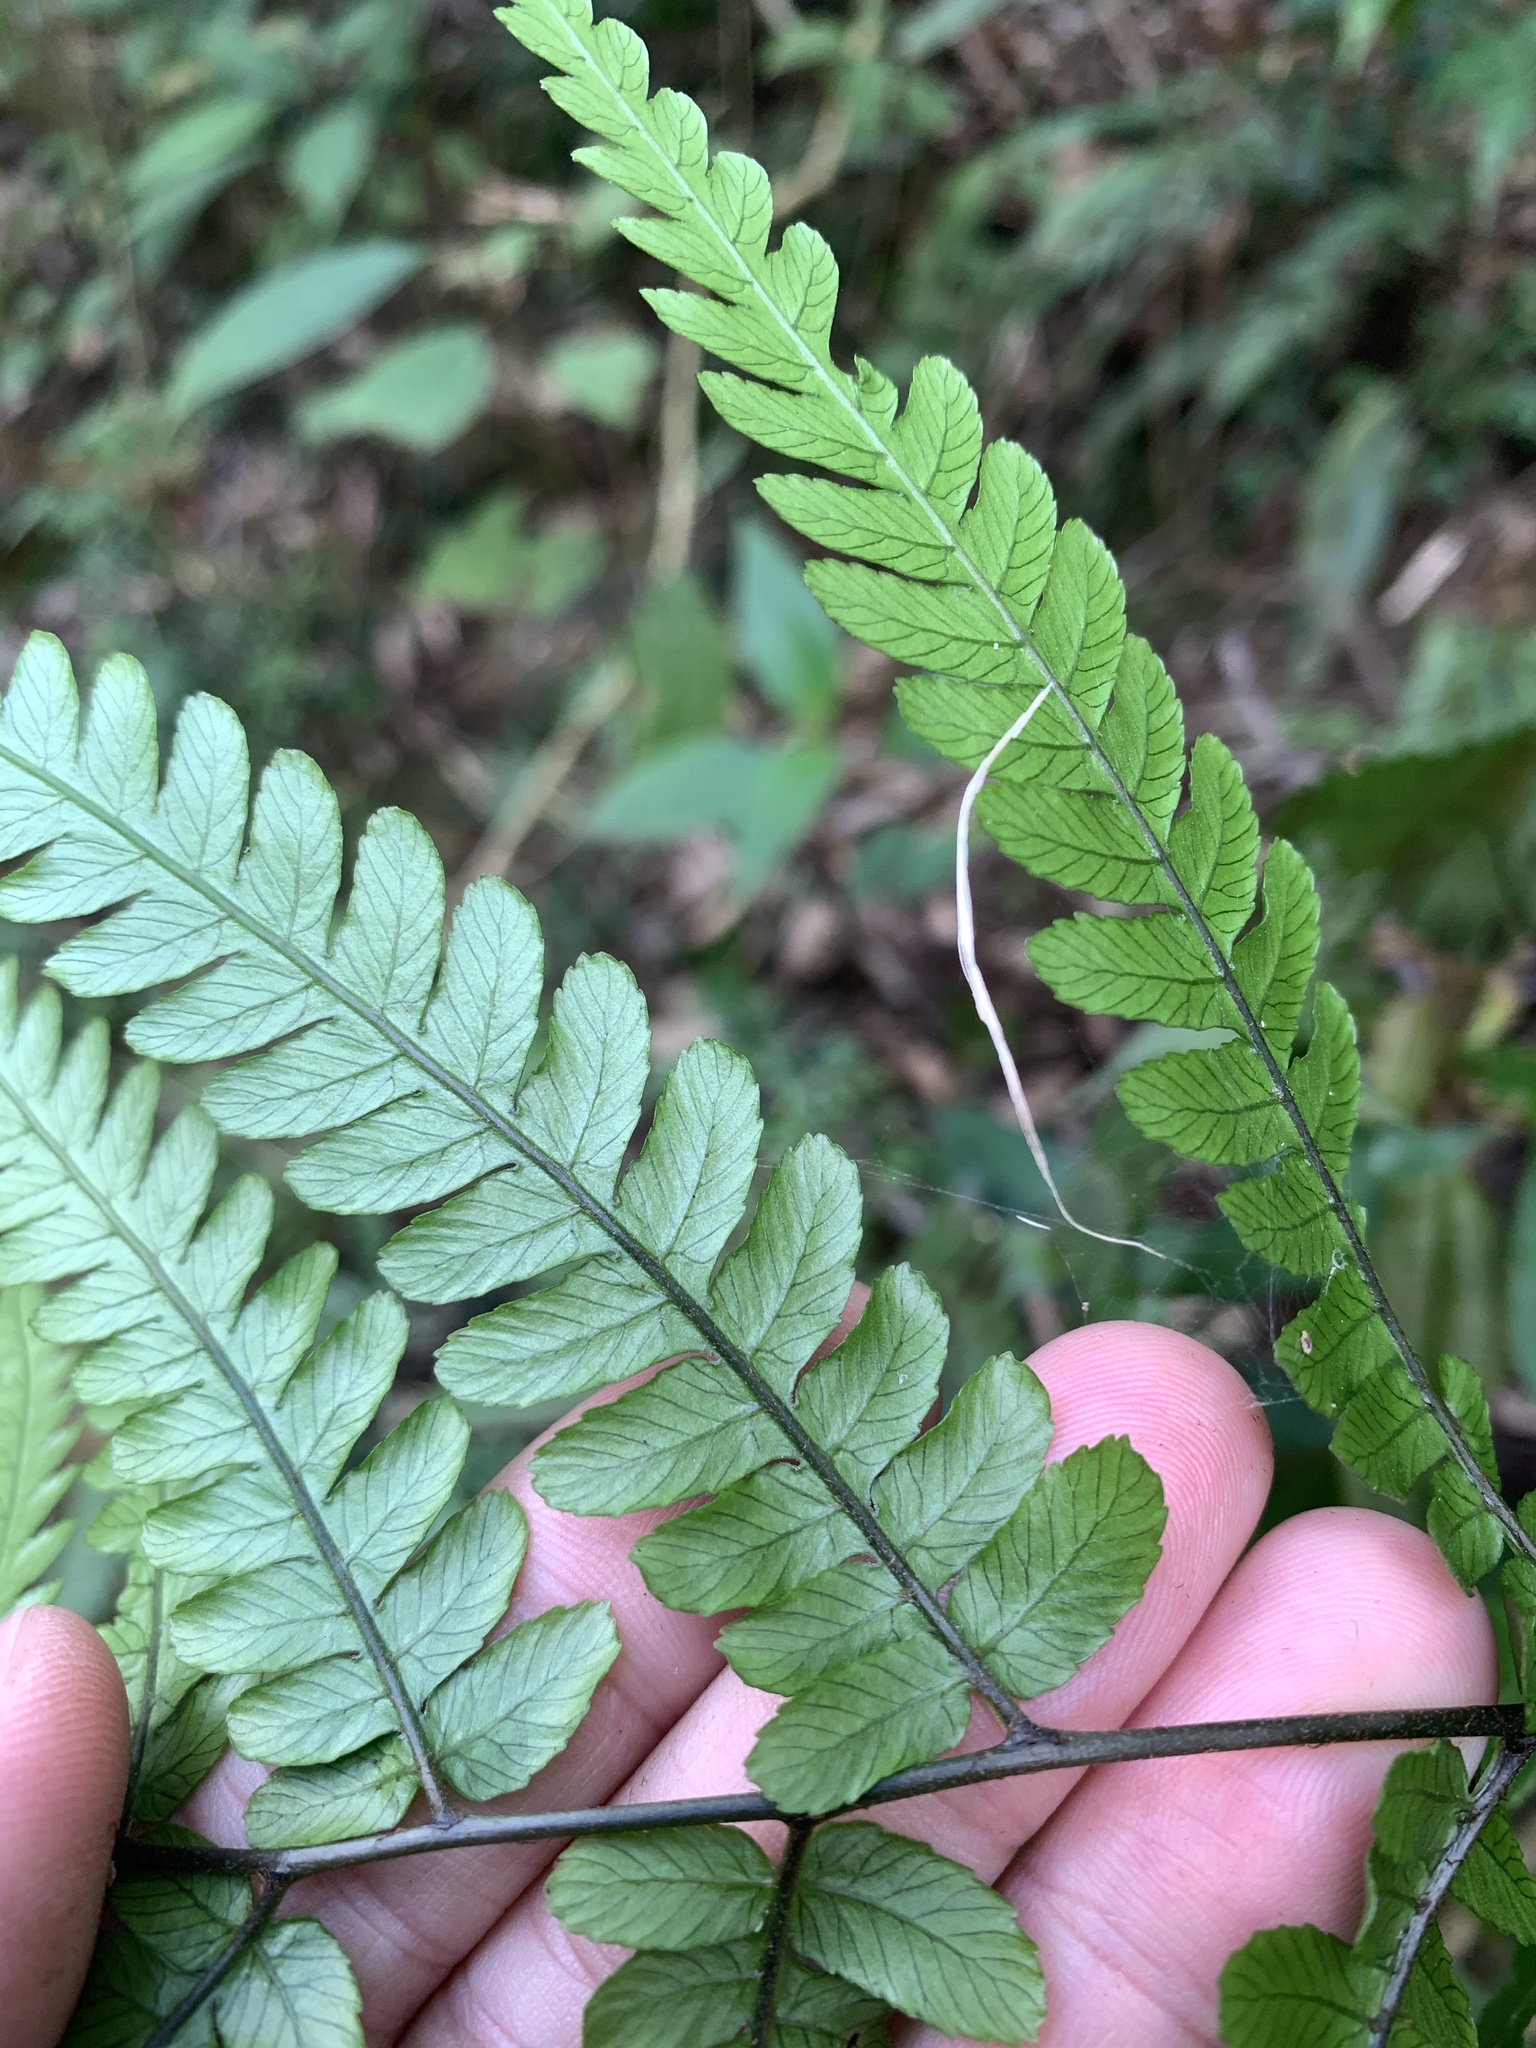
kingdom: Plantae
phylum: Tracheophyta
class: Polypodiopsida
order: Polypodiales
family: Athyriaceae
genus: Diplazium
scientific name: Diplazium petri
